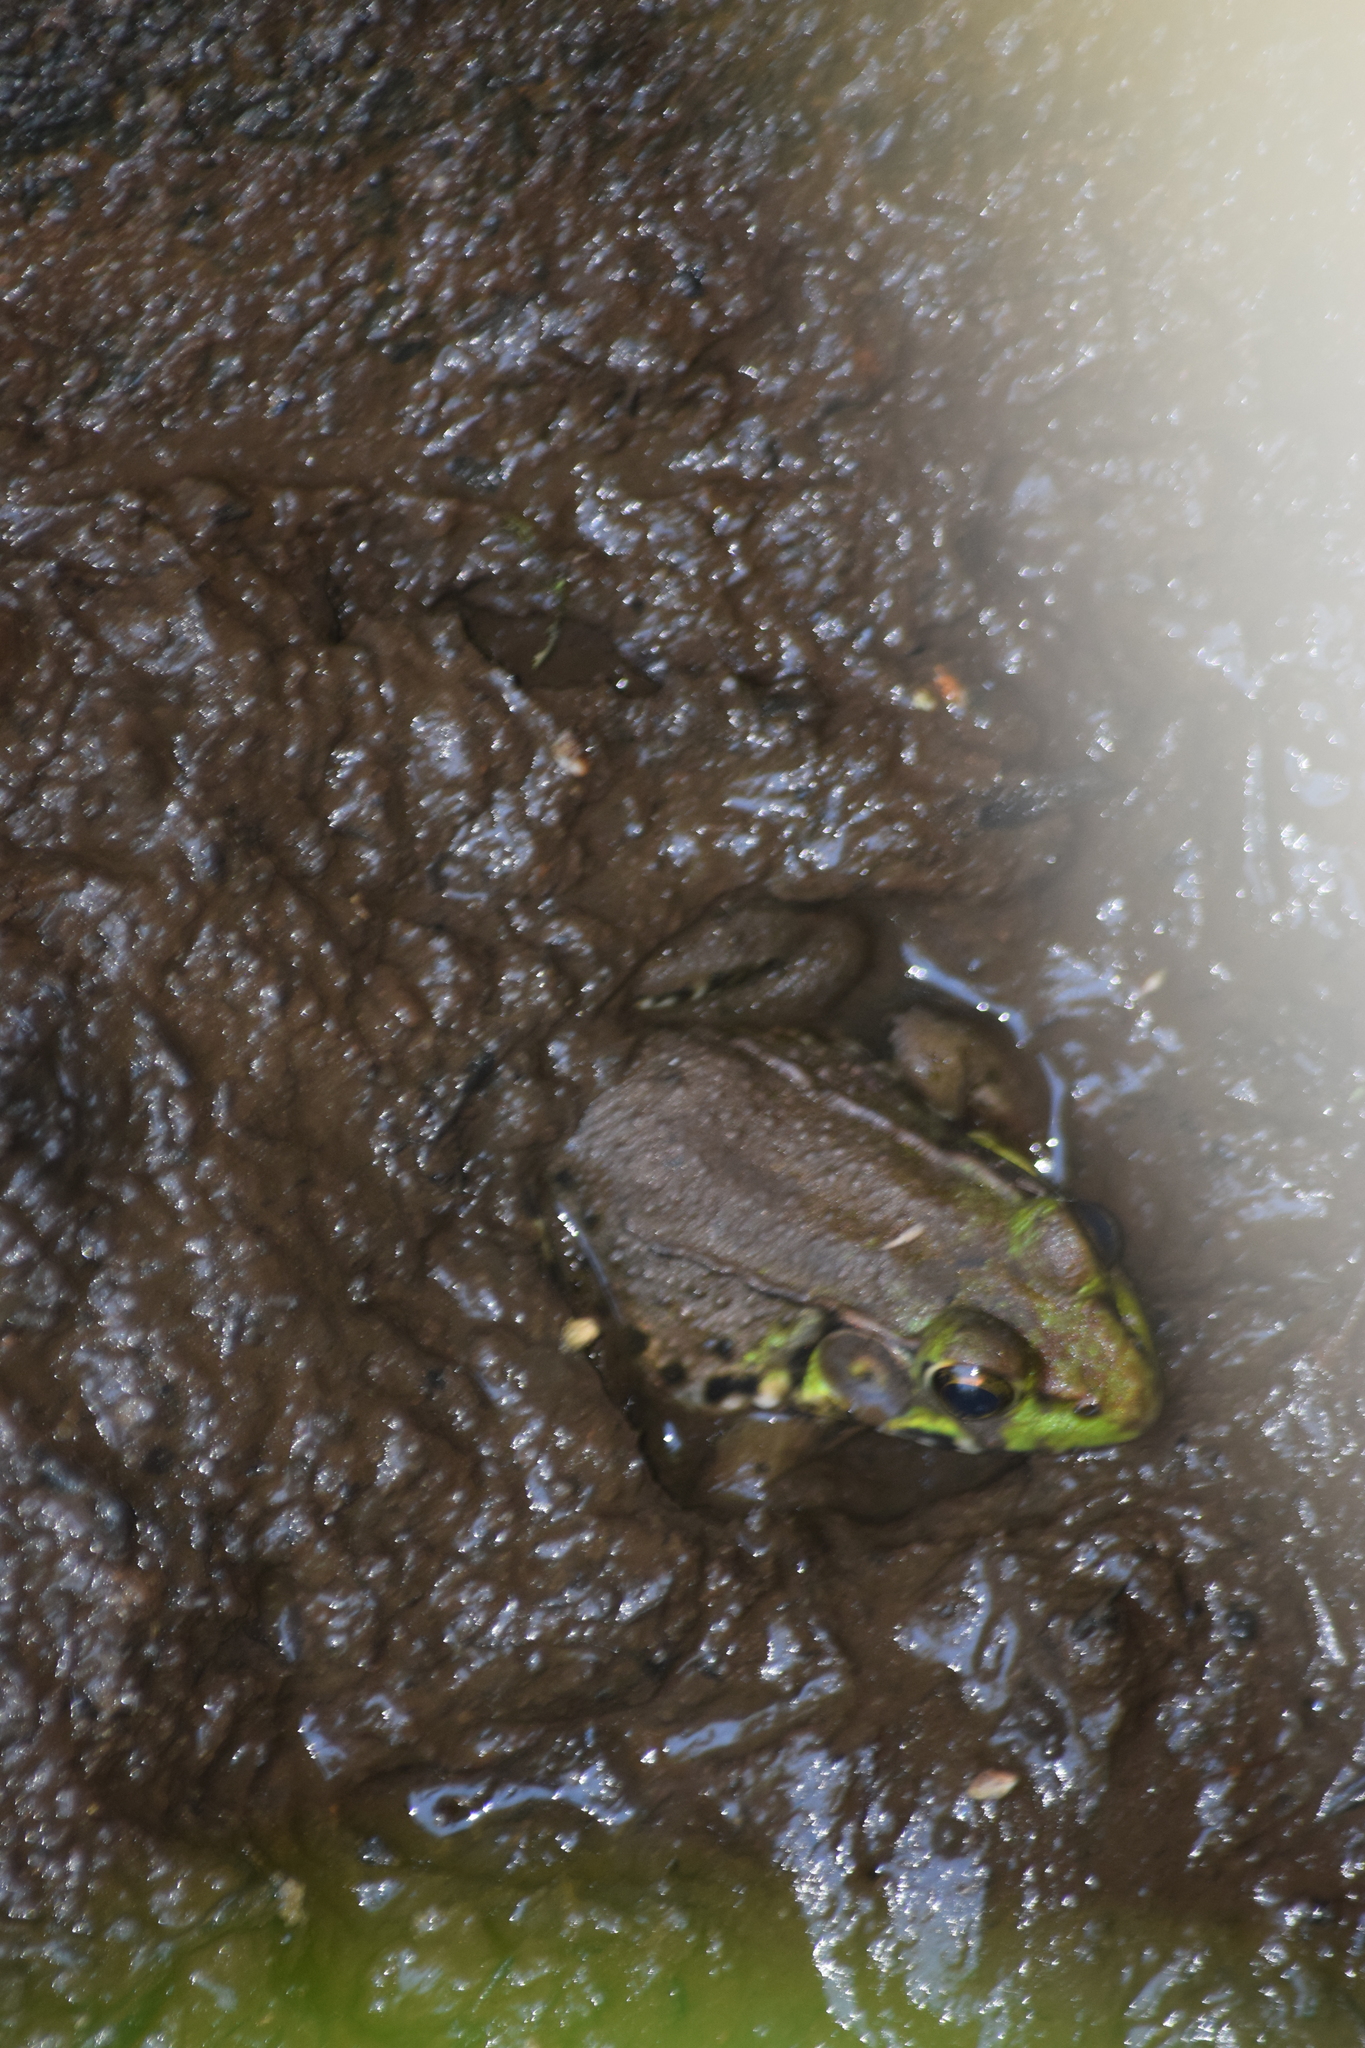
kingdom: Animalia
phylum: Chordata
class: Amphibia
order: Anura
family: Ranidae
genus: Lithobates
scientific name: Lithobates clamitans
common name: Green frog
